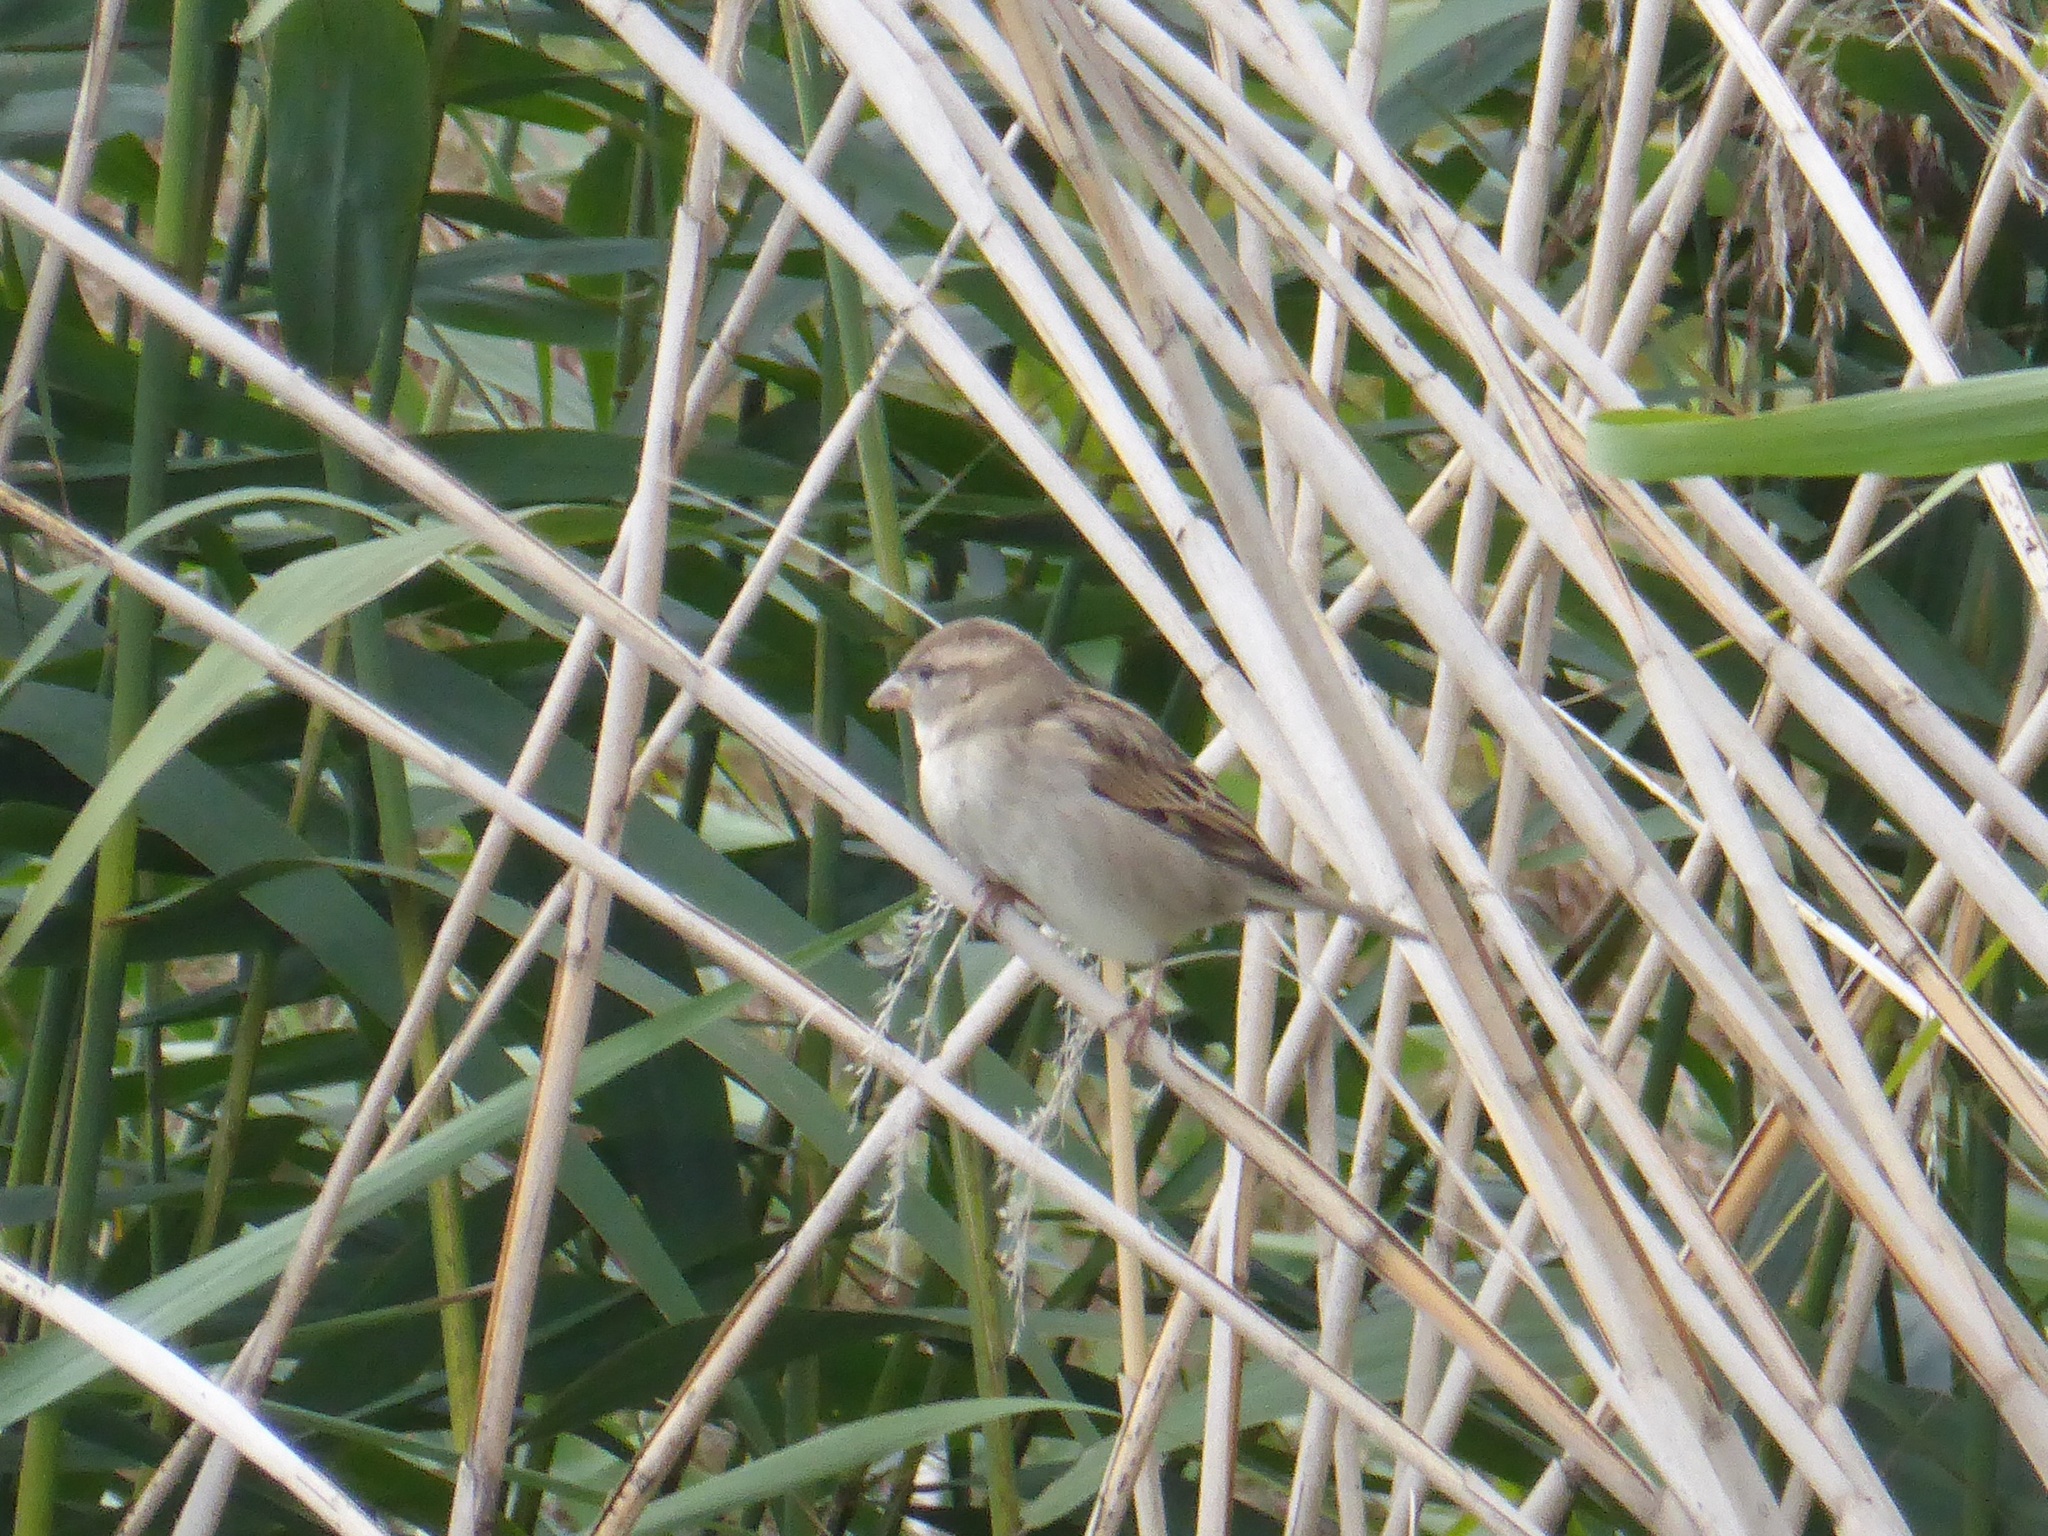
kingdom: Animalia
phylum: Chordata
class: Aves
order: Passeriformes
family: Passeridae
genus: Passer
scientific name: Passer domesticus
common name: House sparrow
